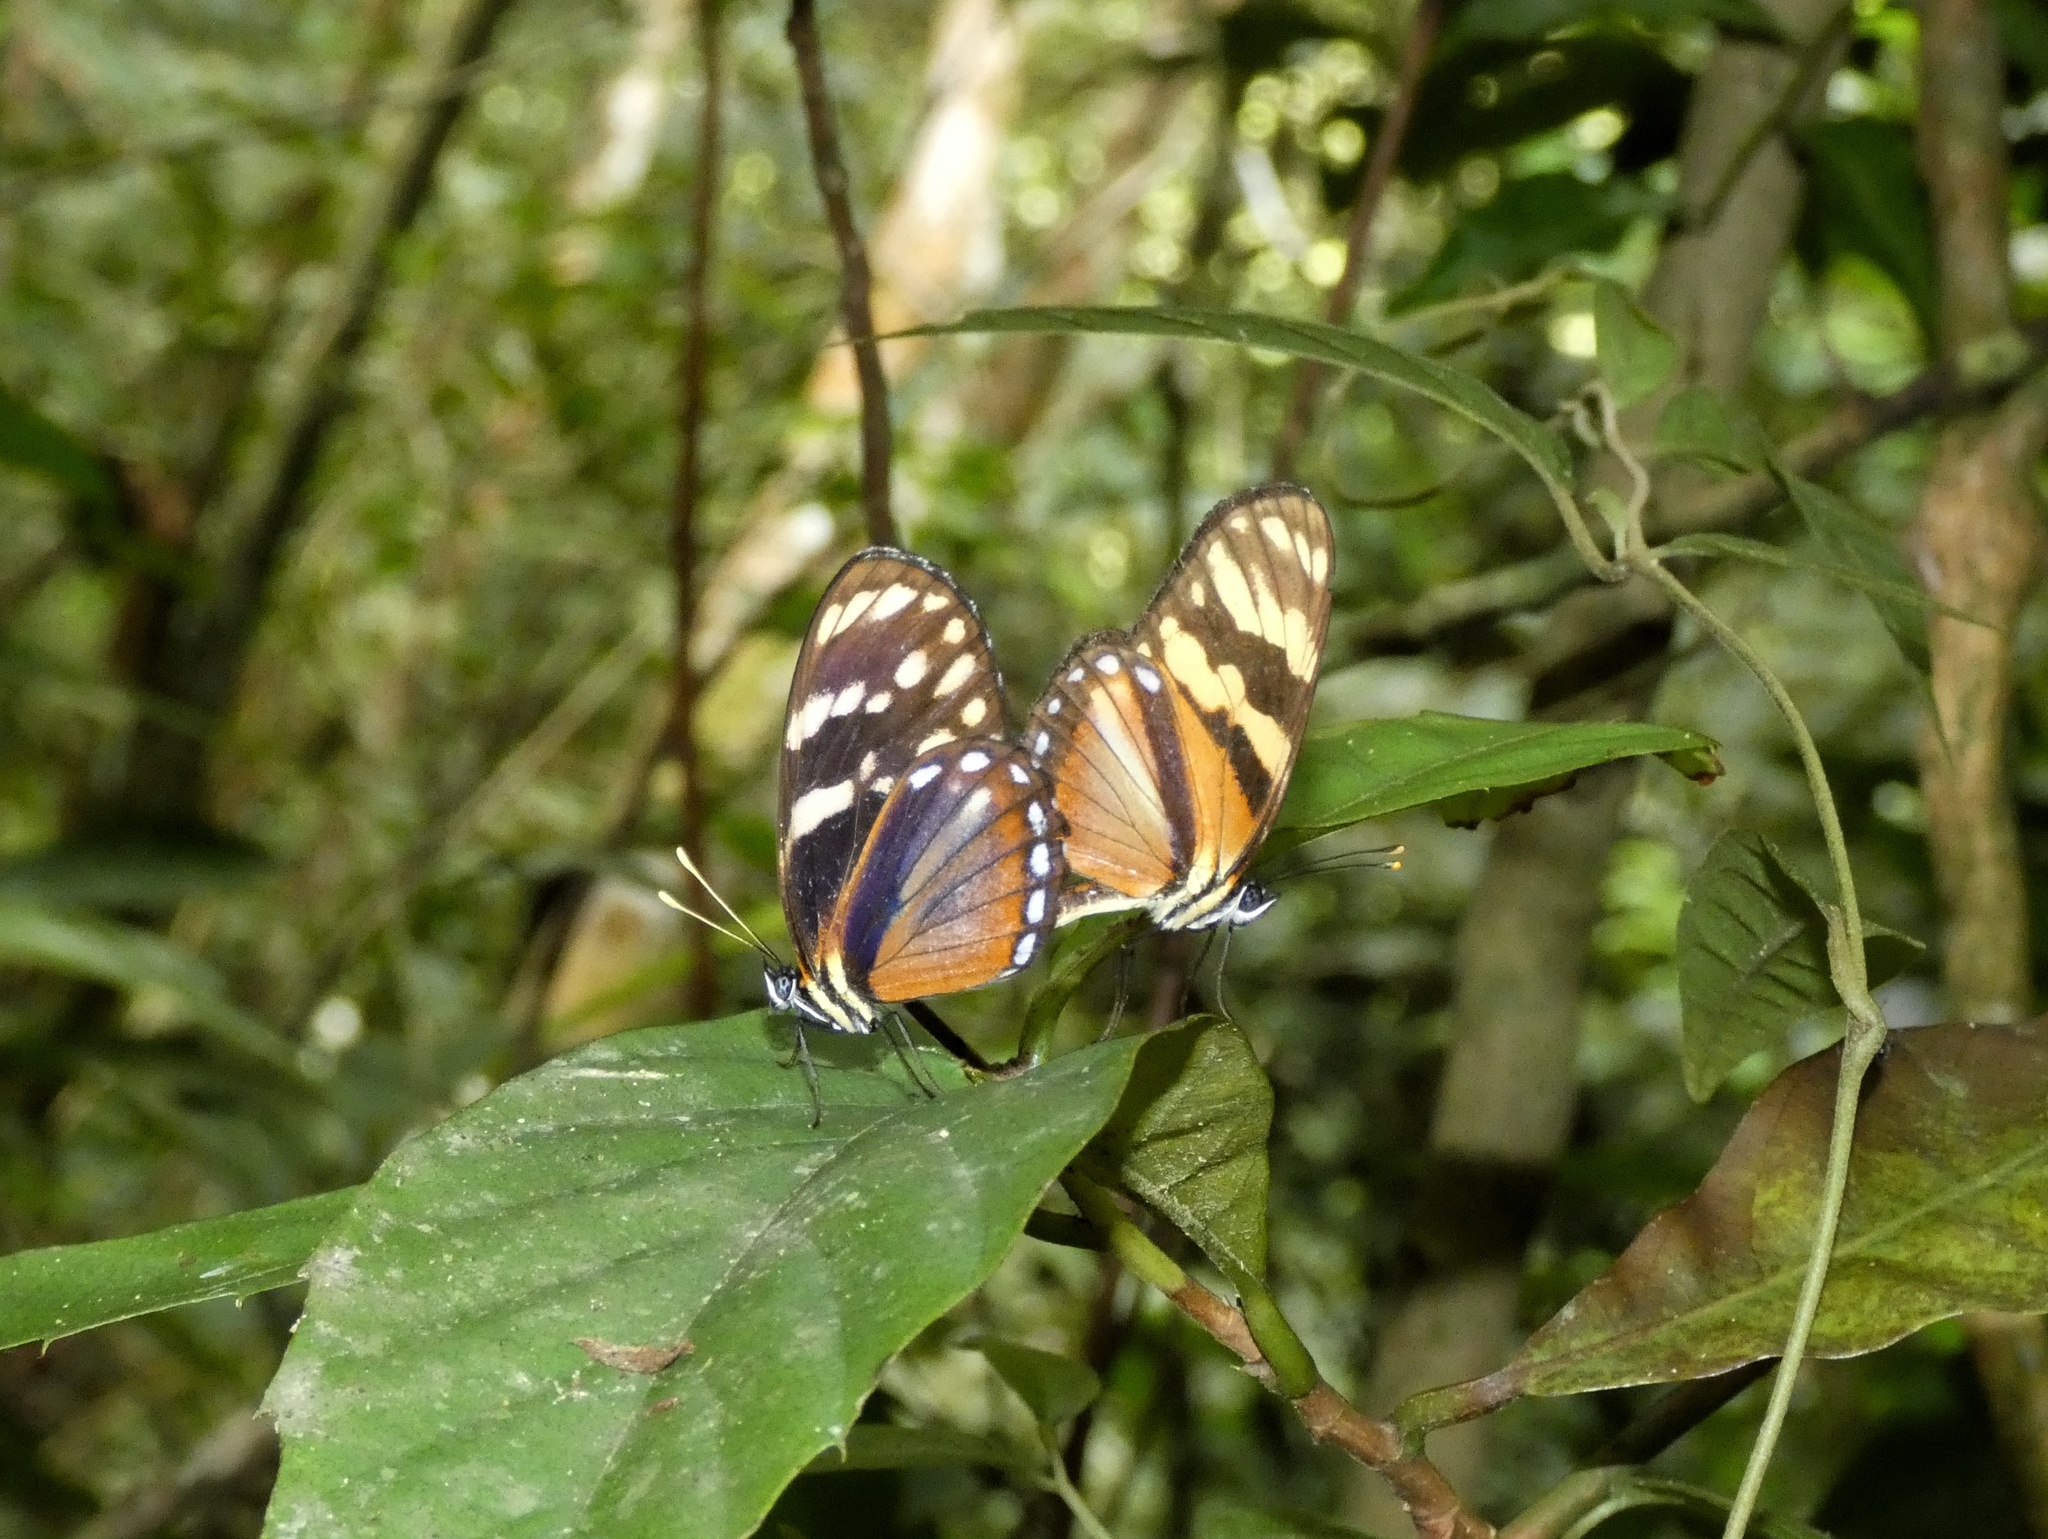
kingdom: Animalia
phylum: Arthropoda
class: Insecta
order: Lepidoptera
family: Nymphalidae
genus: Eresia
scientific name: Eresia ithomioides
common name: Variable crescent
